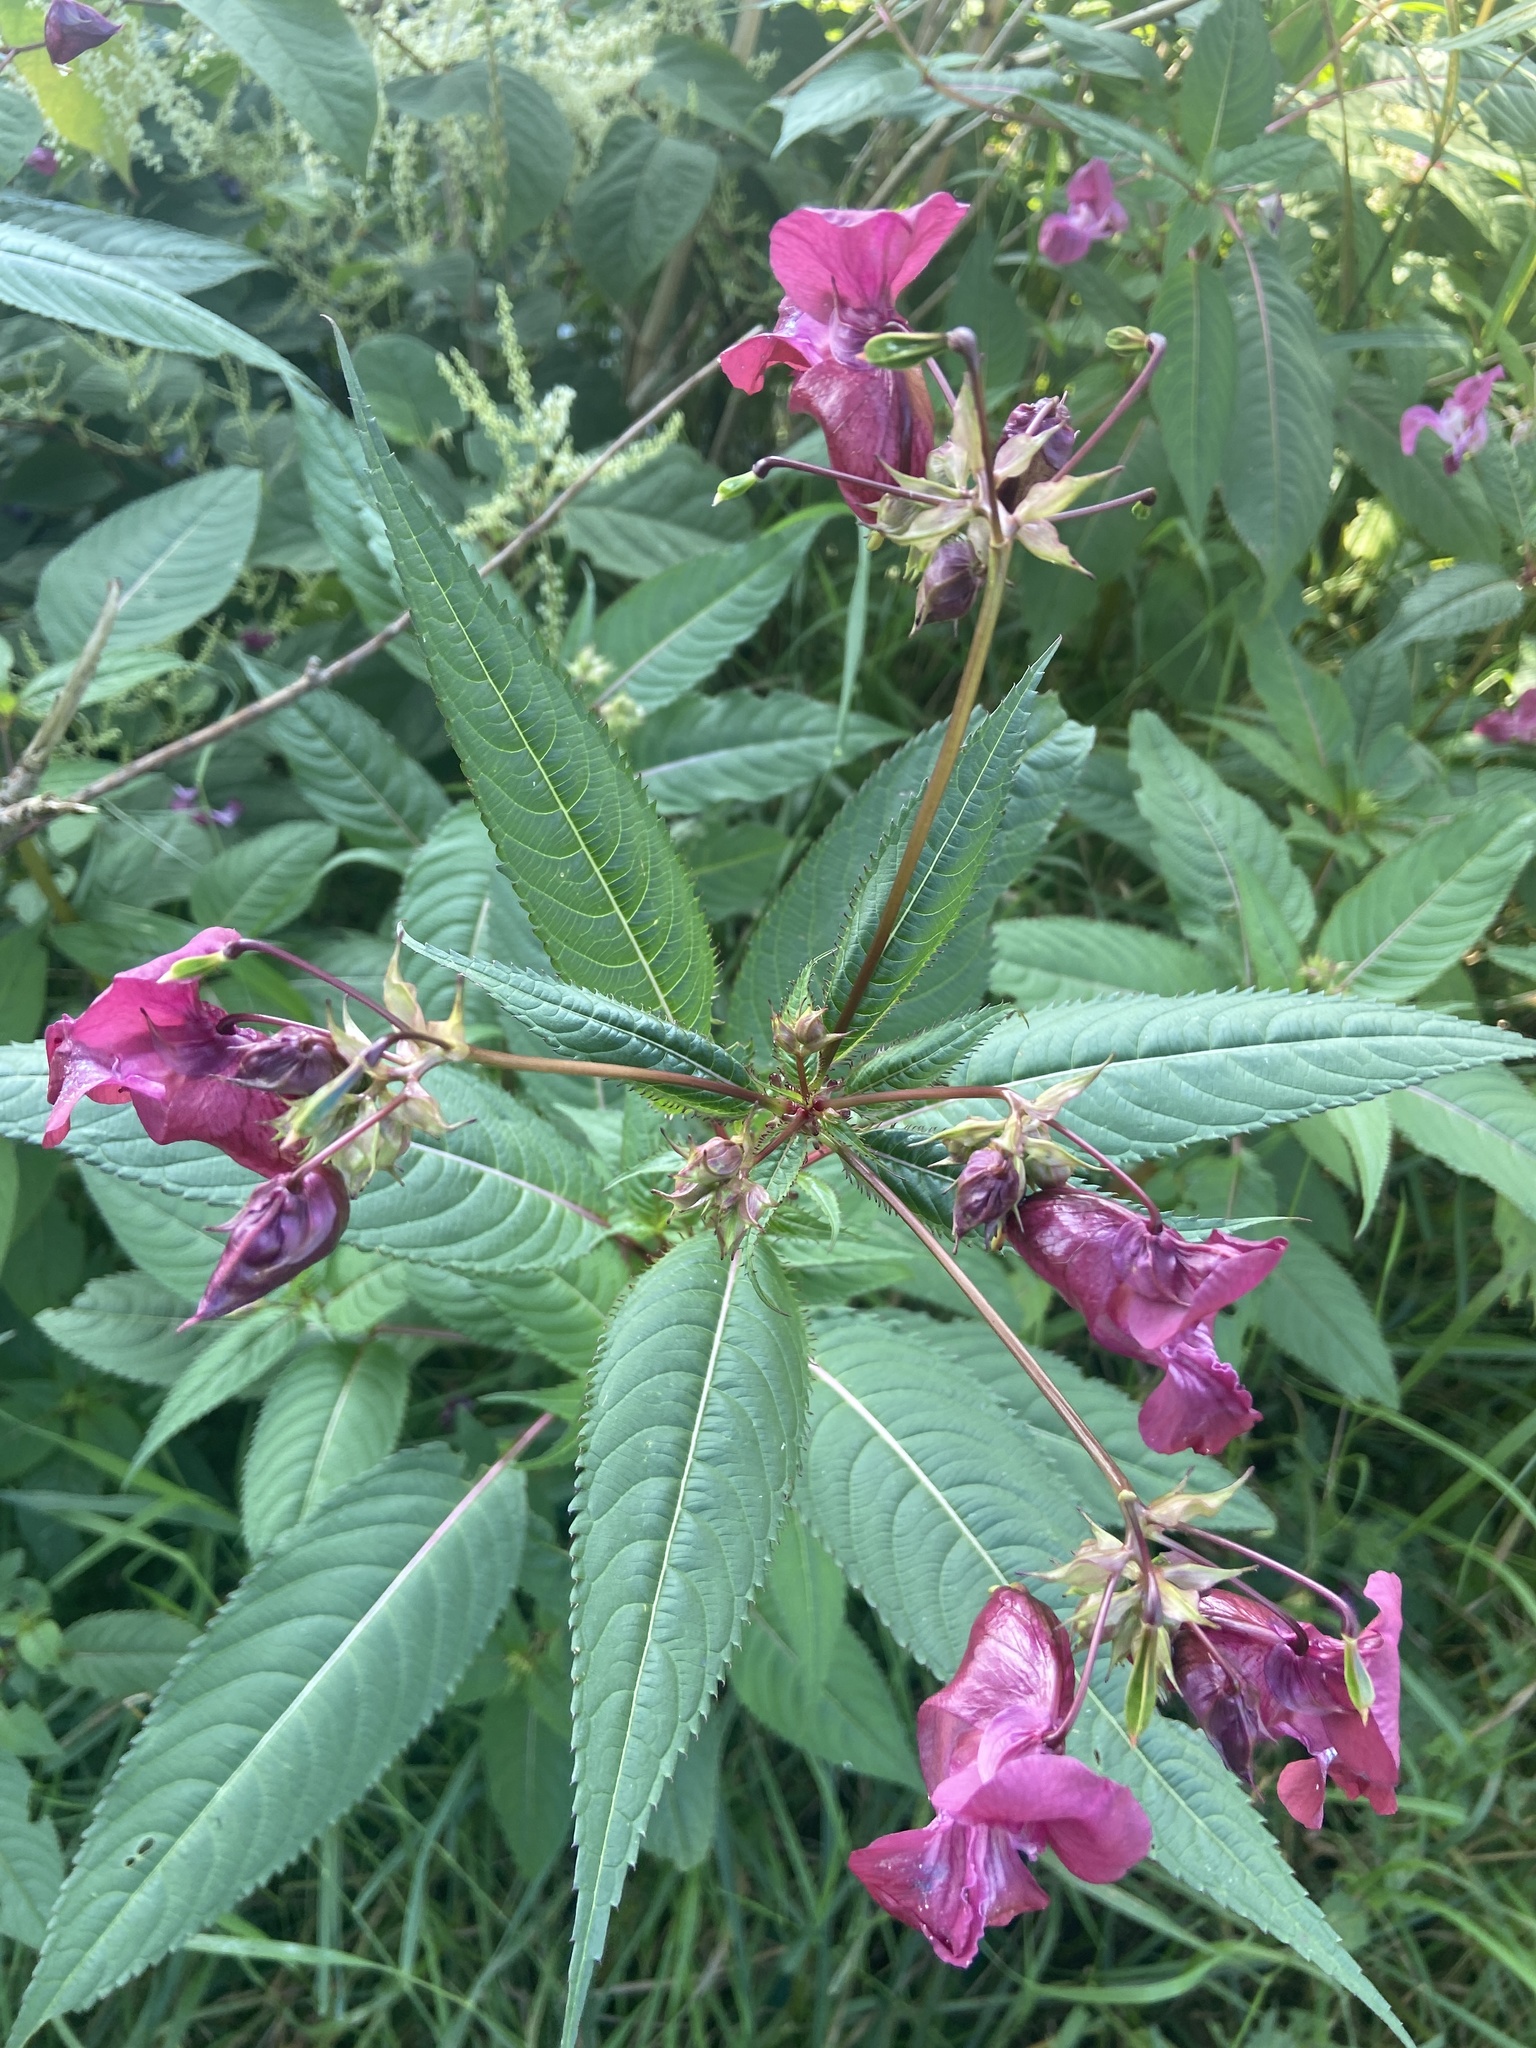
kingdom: Plantae
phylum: Tracheophyta
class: Magnoliopsida
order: Ericales
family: Balsaminaceae
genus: Impatiens
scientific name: Impatiens glandulifera
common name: Himalayan balsam
